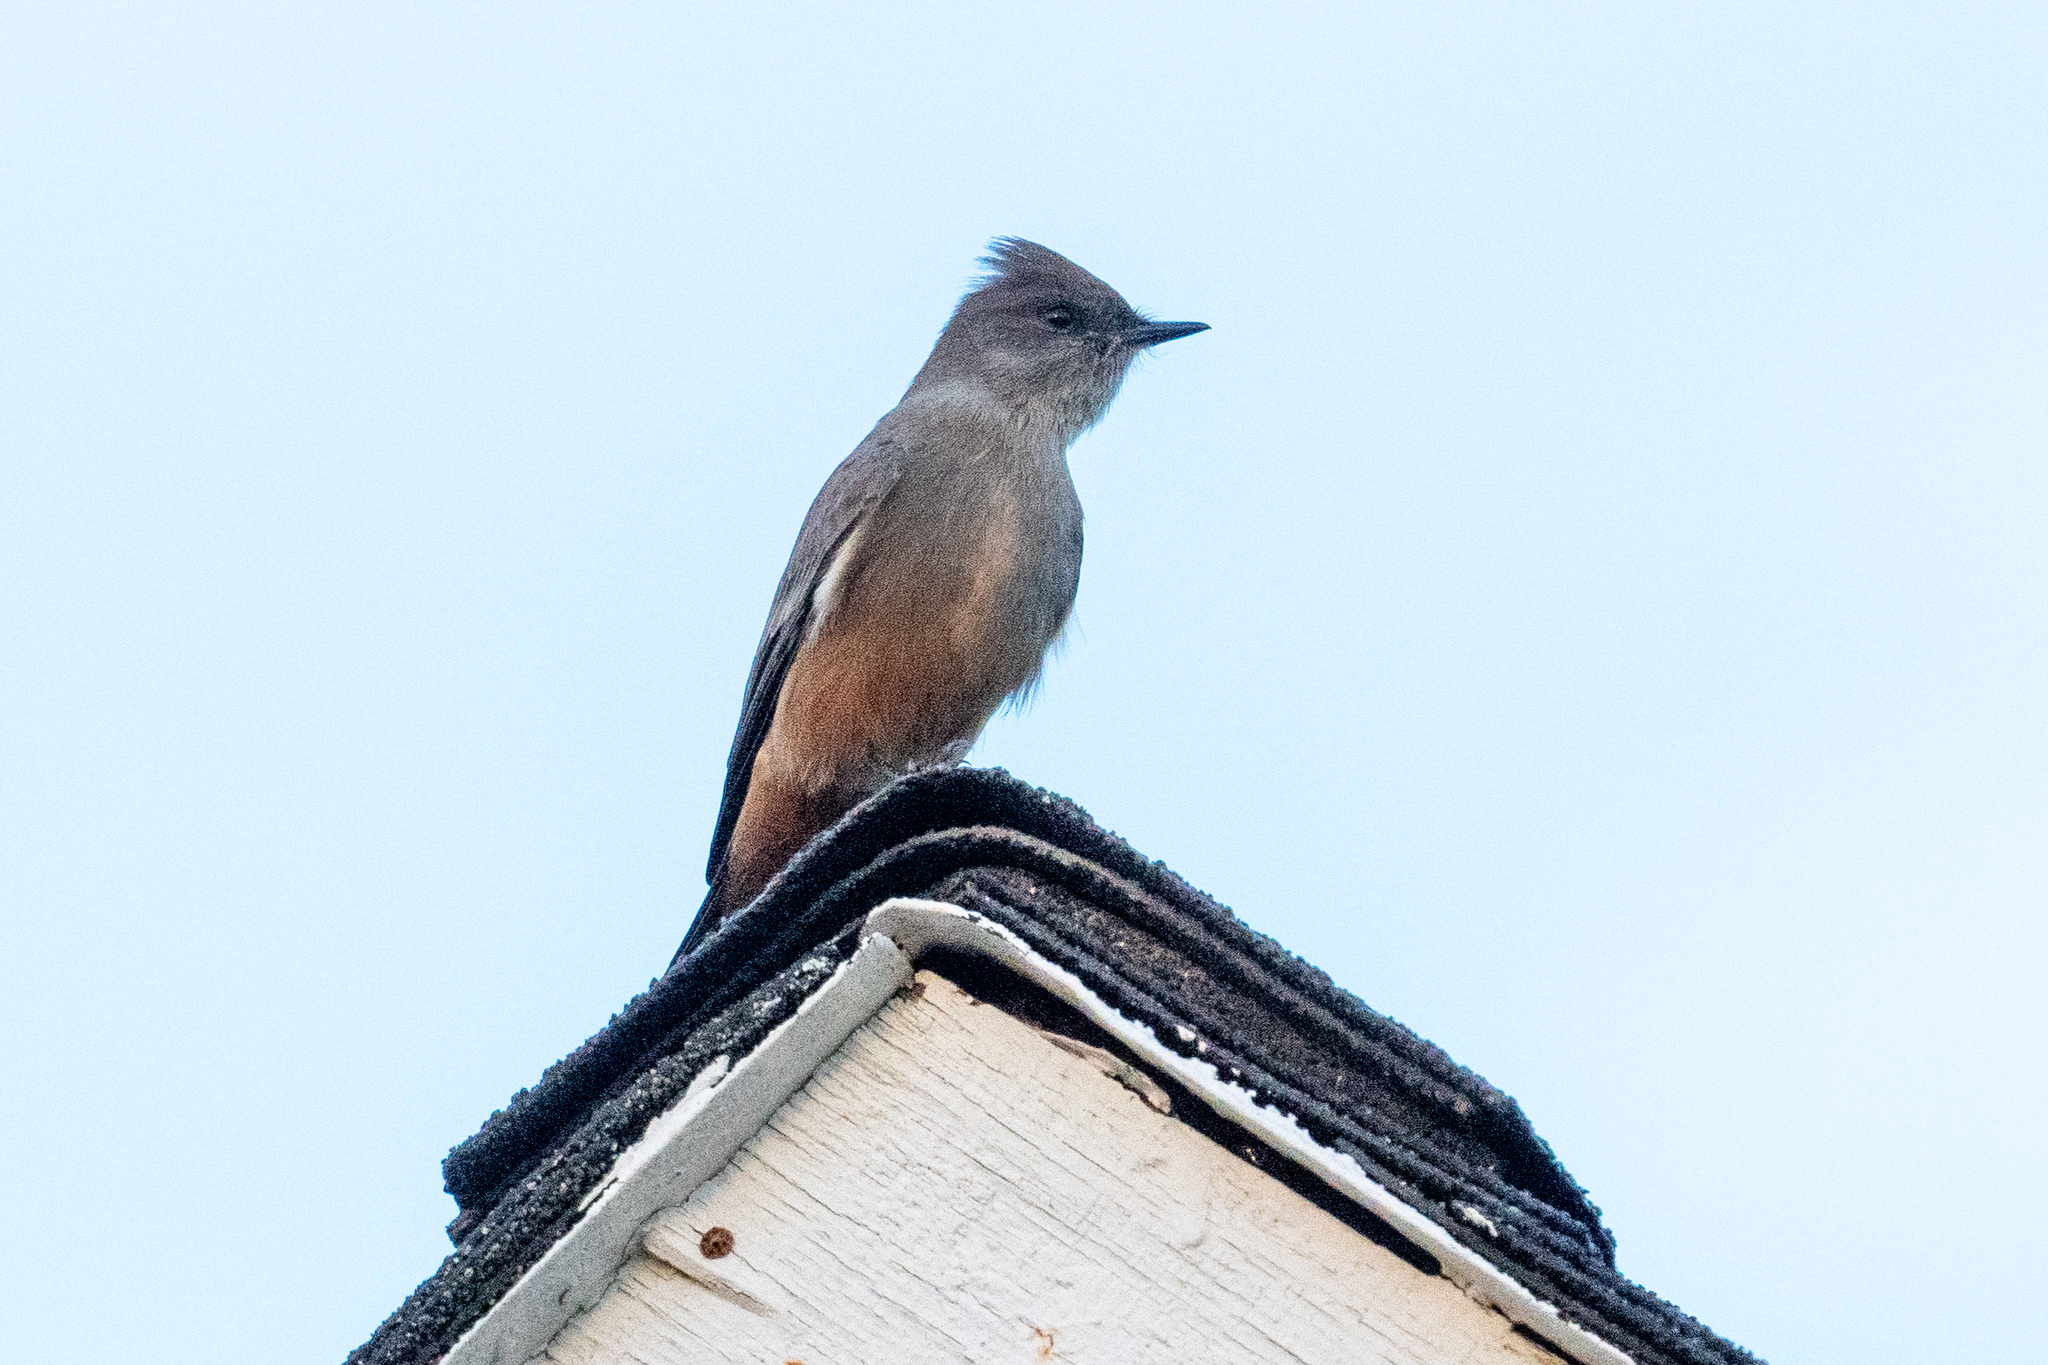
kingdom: Animalia
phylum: Chordata
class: Aves
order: Passeriformes
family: Tyrannidae
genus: Sayornis
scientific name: Sayornis saya
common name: Say's phoebe
